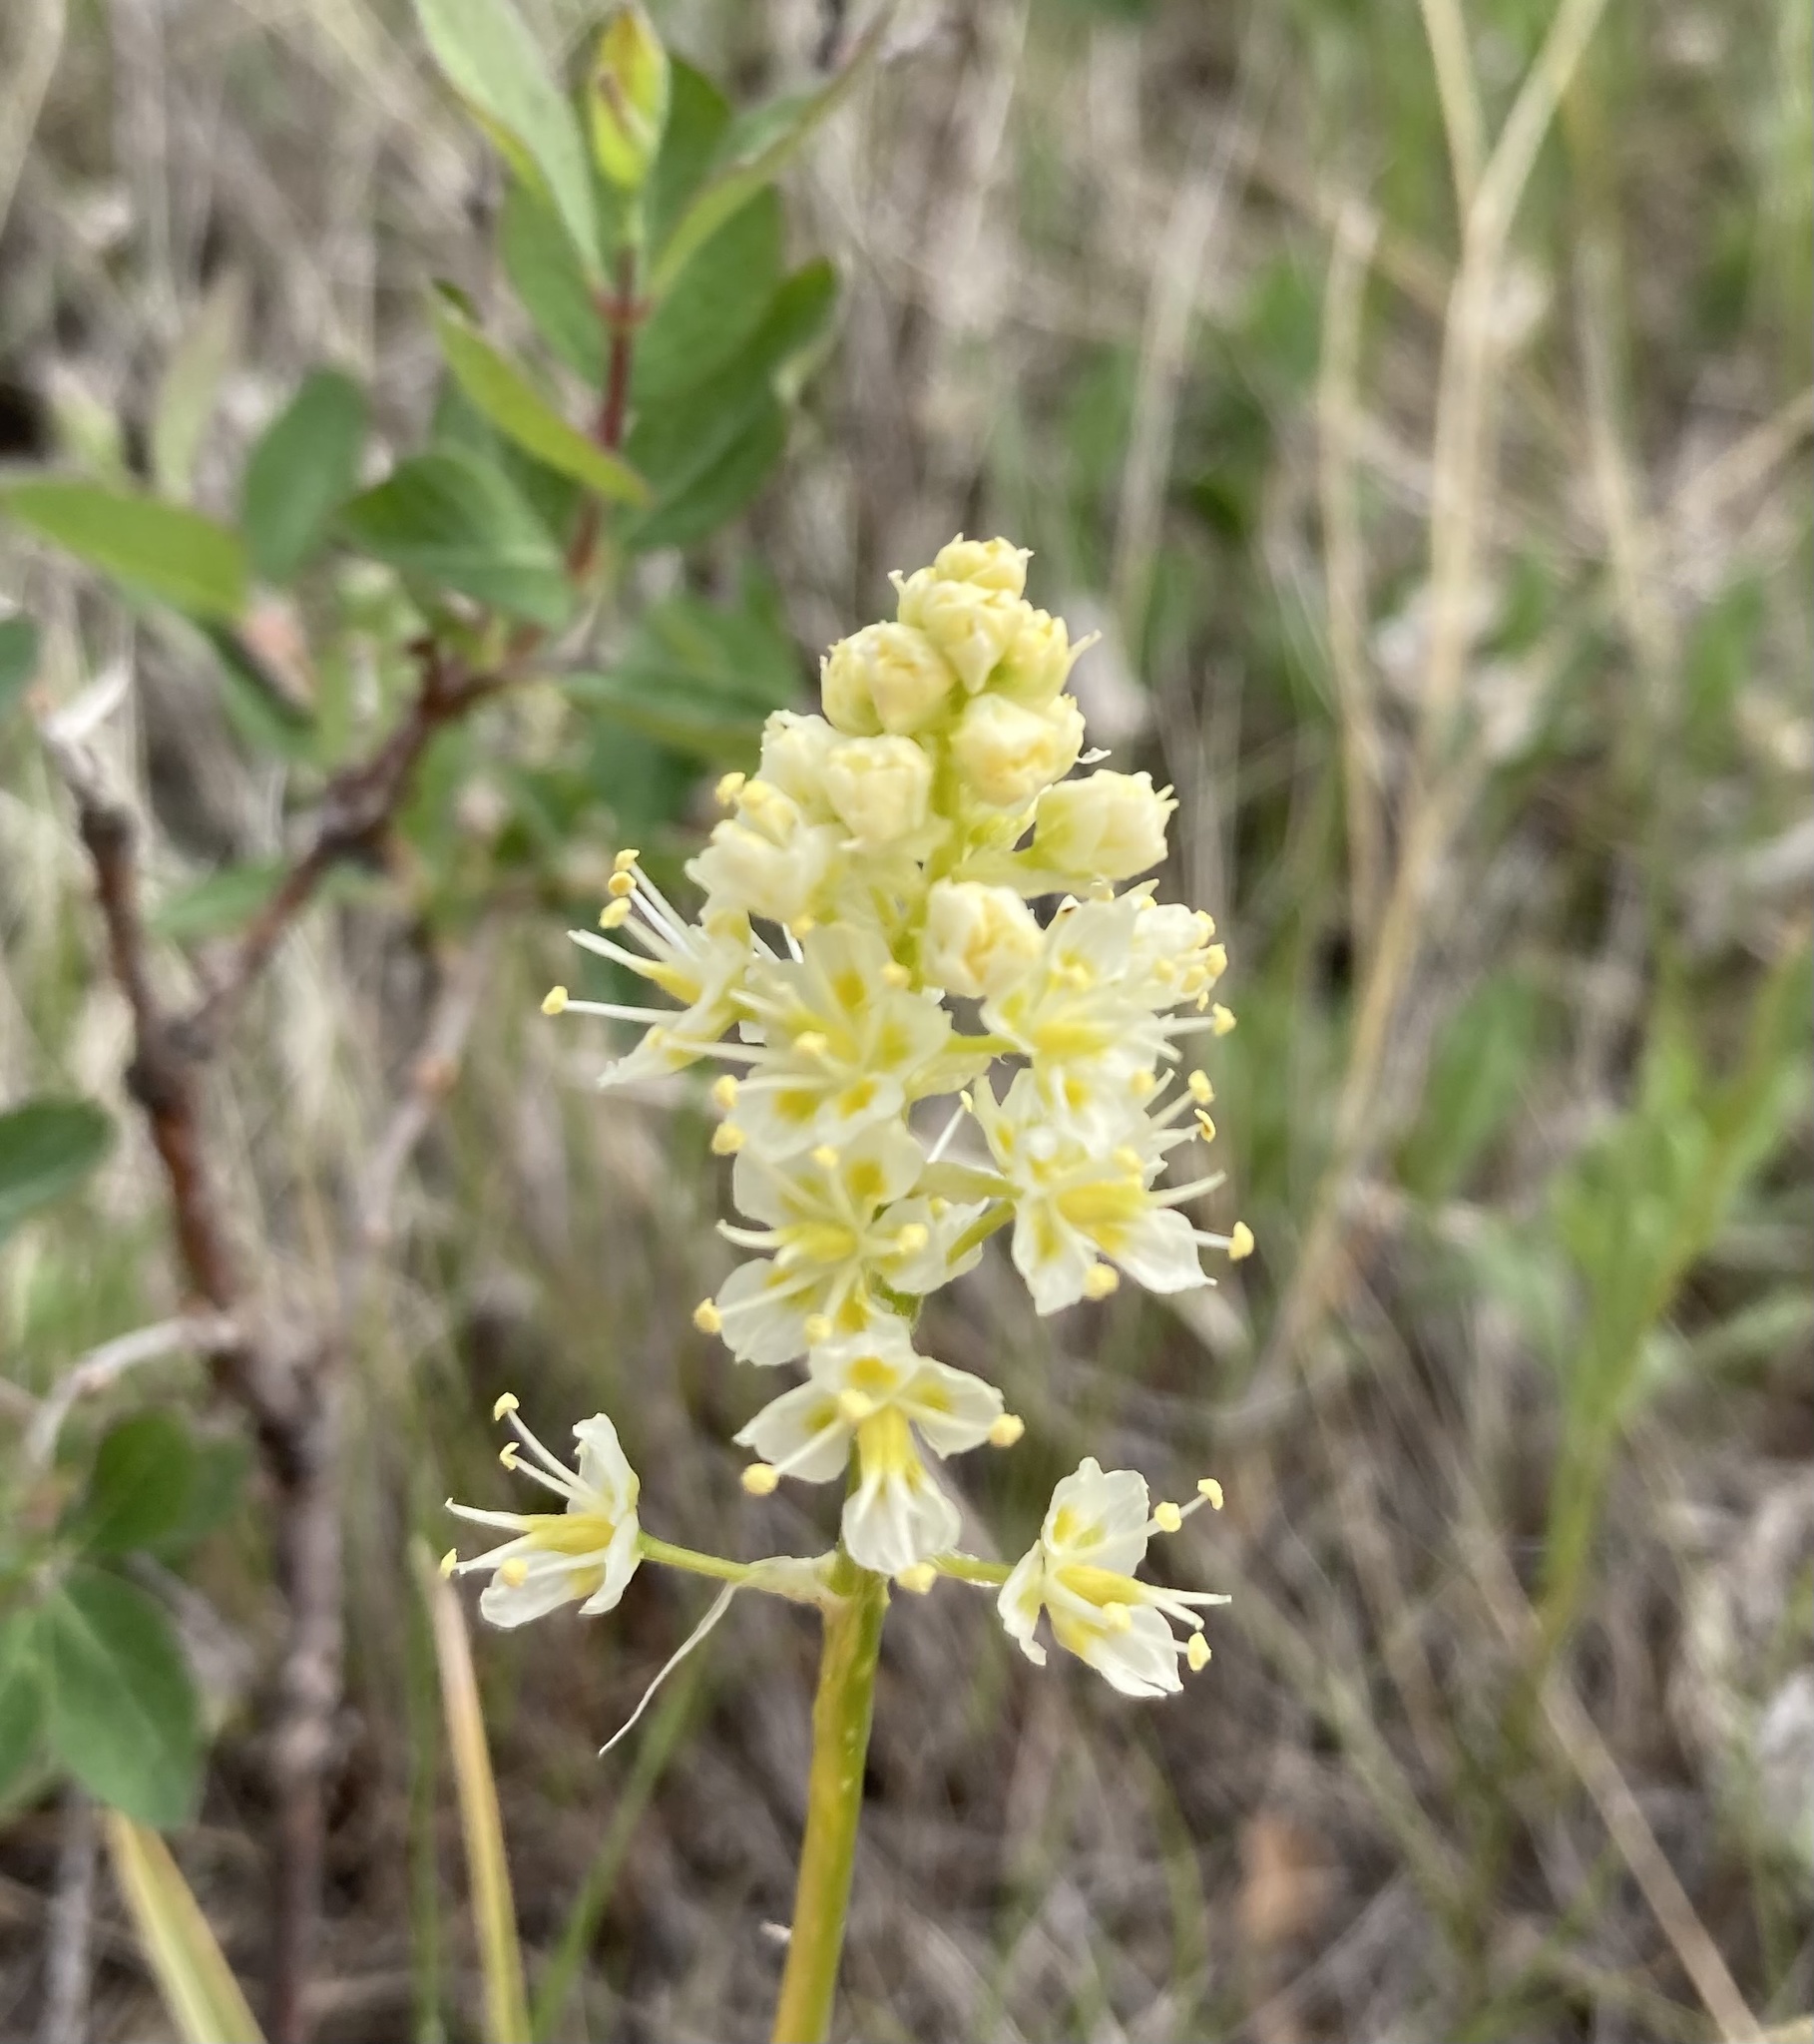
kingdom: Plantae
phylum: Tracheophyta
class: Liliopsida
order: Liliales
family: Melanthiaceae
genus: Toxicoscordion
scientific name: Toxicoscordion venenosum
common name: Meadow death camas
